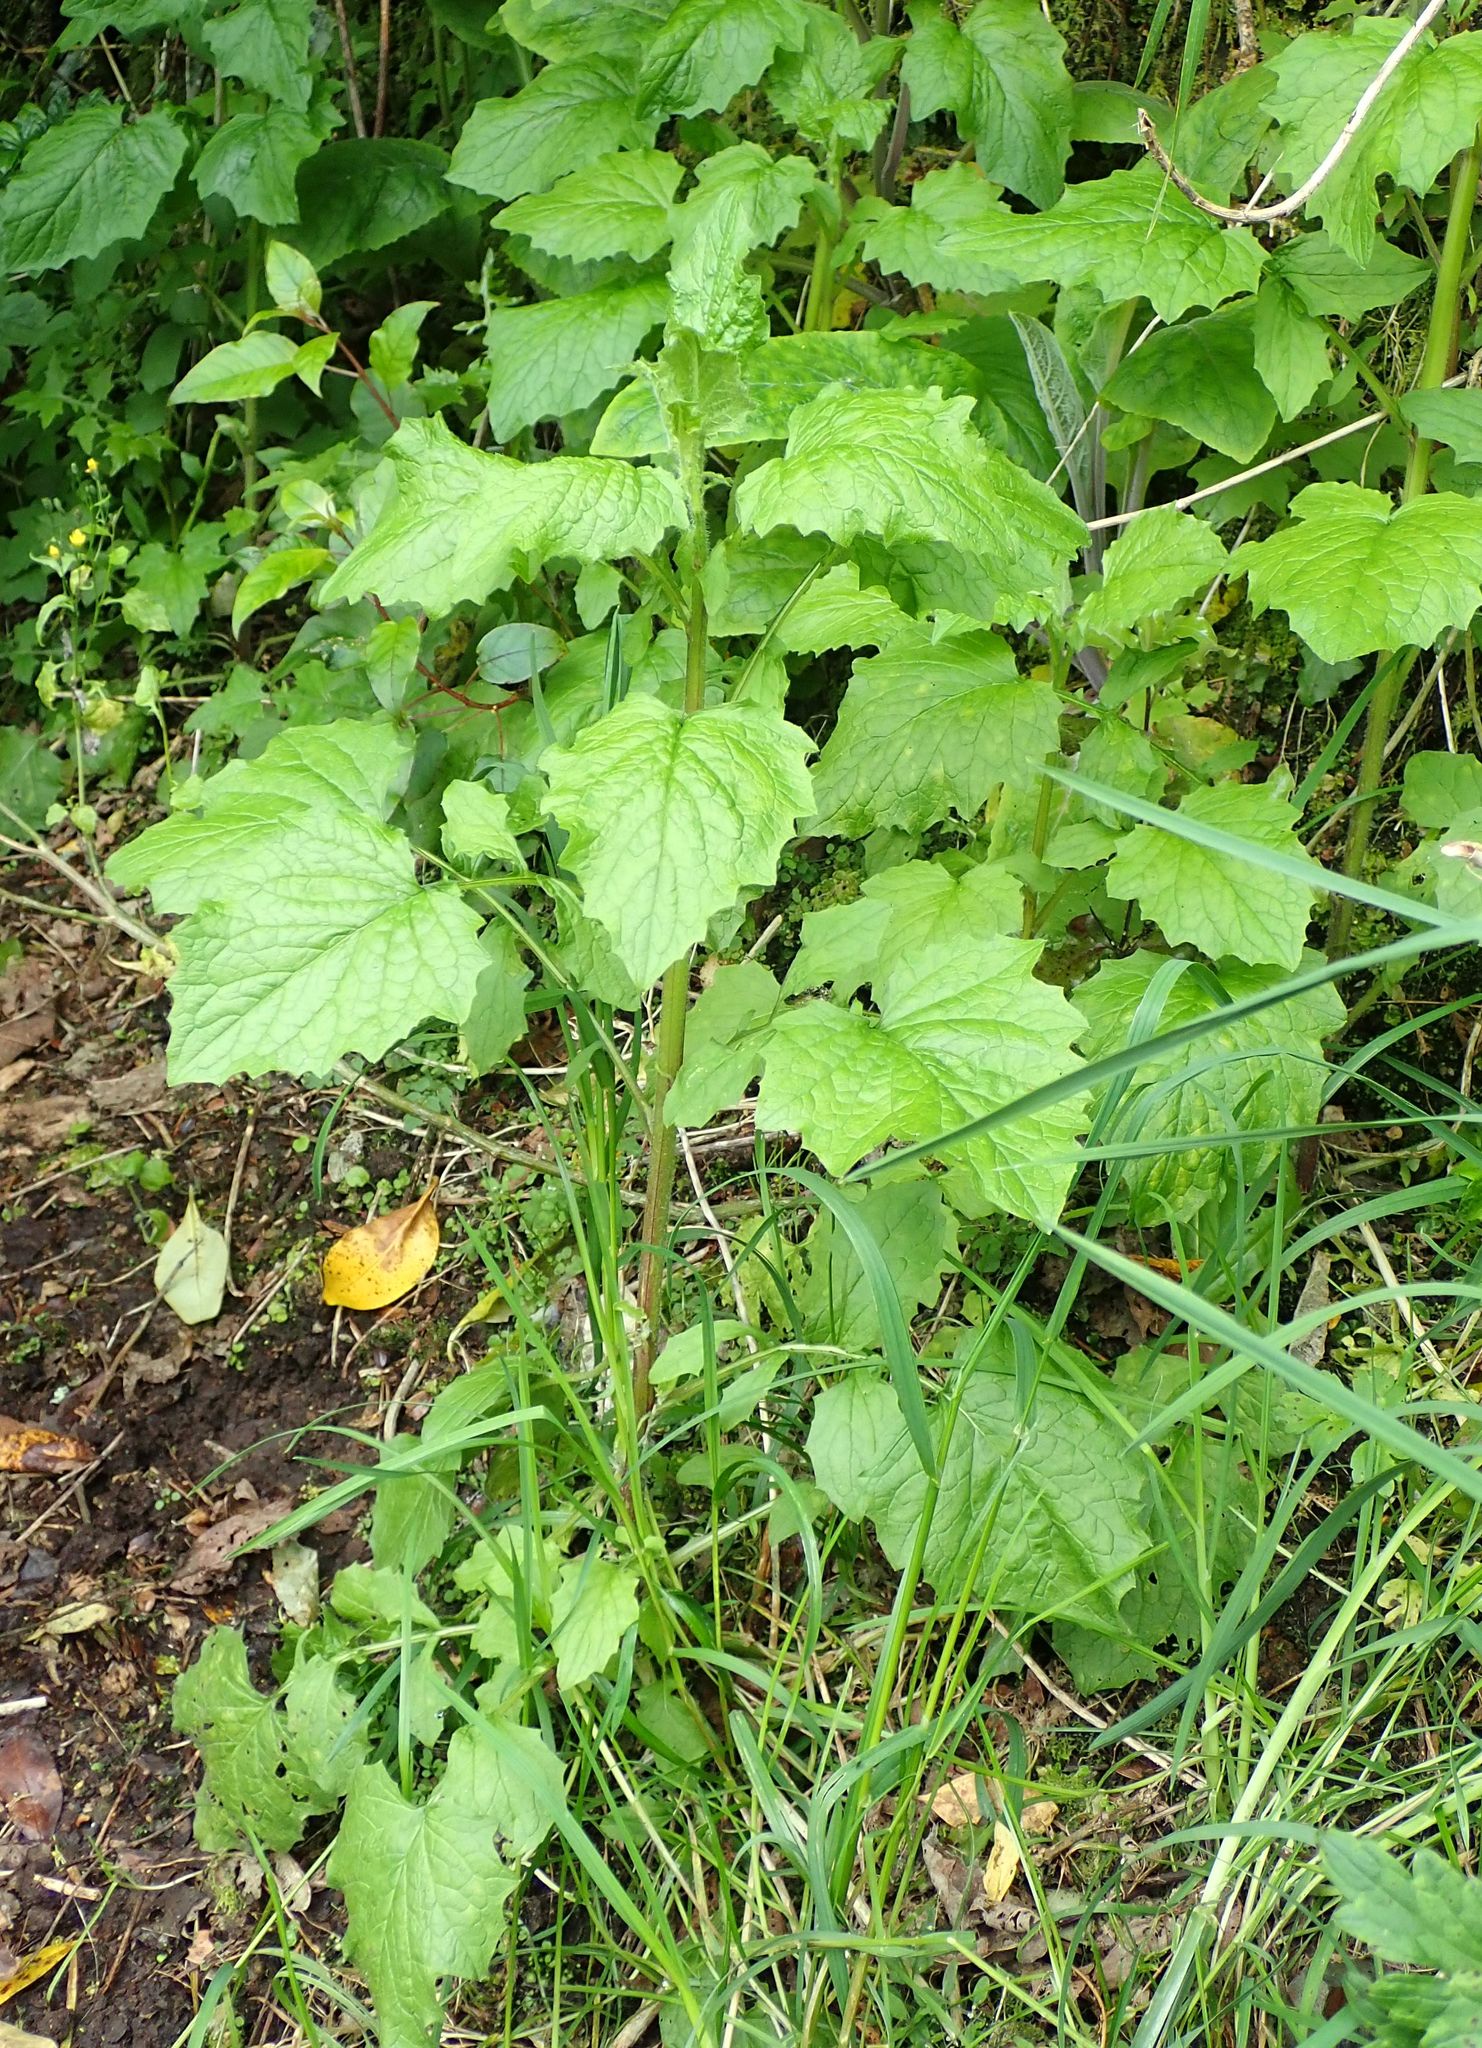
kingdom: Plantae
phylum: Tracheophyta
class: Magnoliopsida
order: Asterales
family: Asteraceae
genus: Lapsana
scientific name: Lapsana communis
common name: Nipplewort
